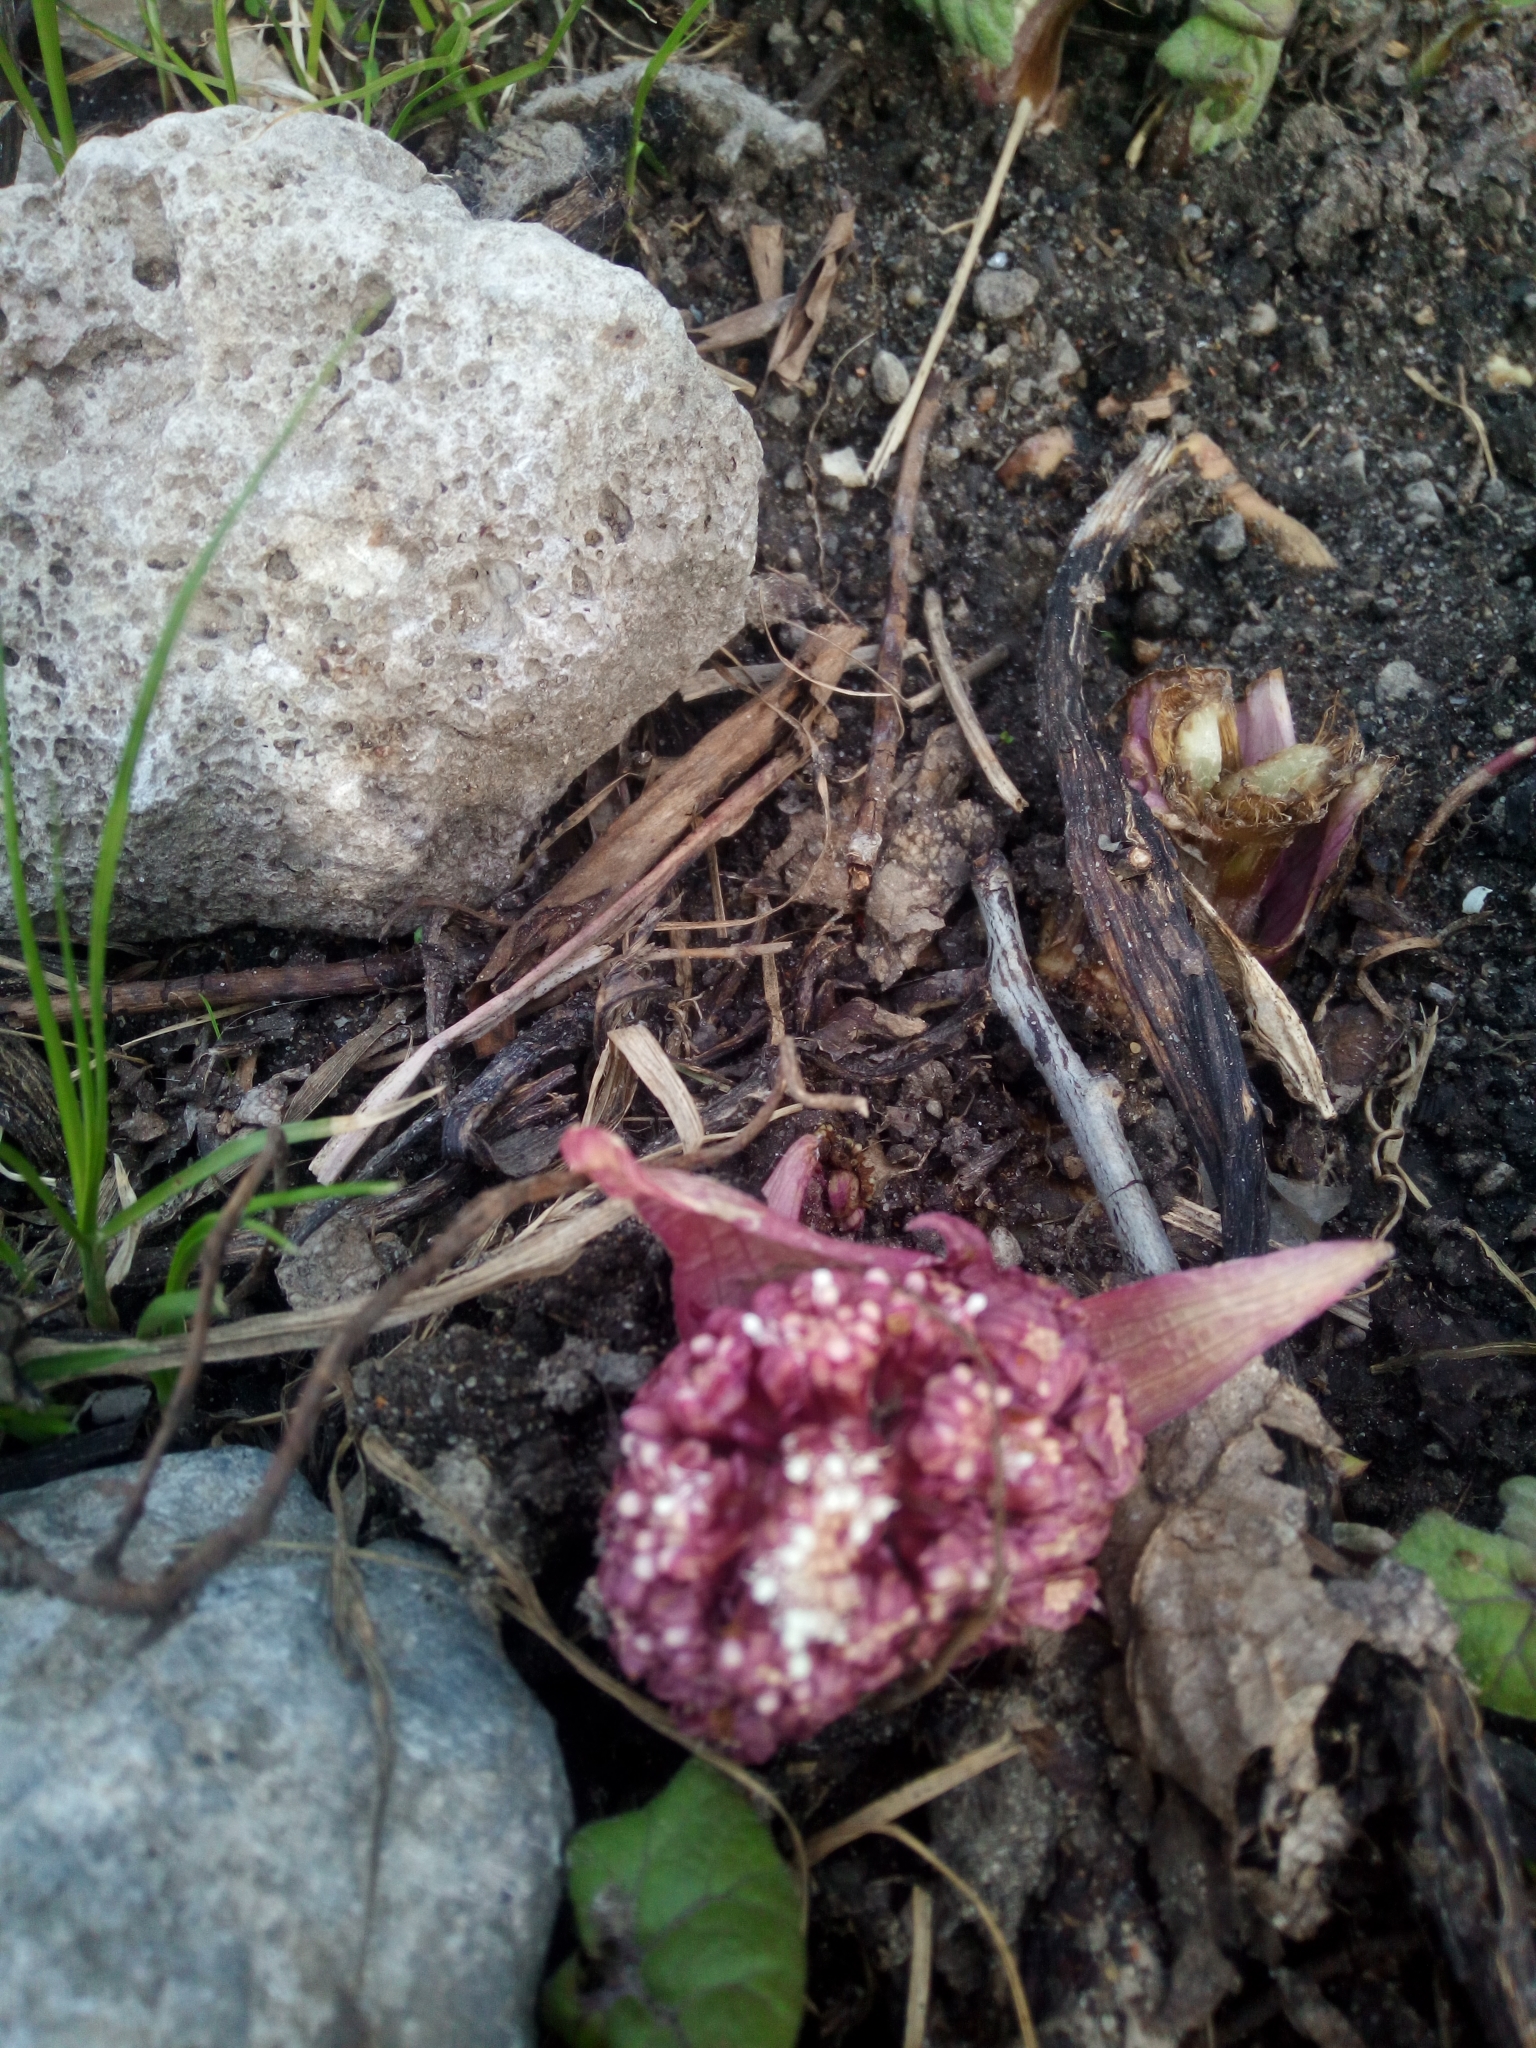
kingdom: Plantae
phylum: Tracheophyta
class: Magnoliopsida
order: Asterales
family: Asteraceae
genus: Petasites
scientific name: Petasites hybridus
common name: Butterbur
